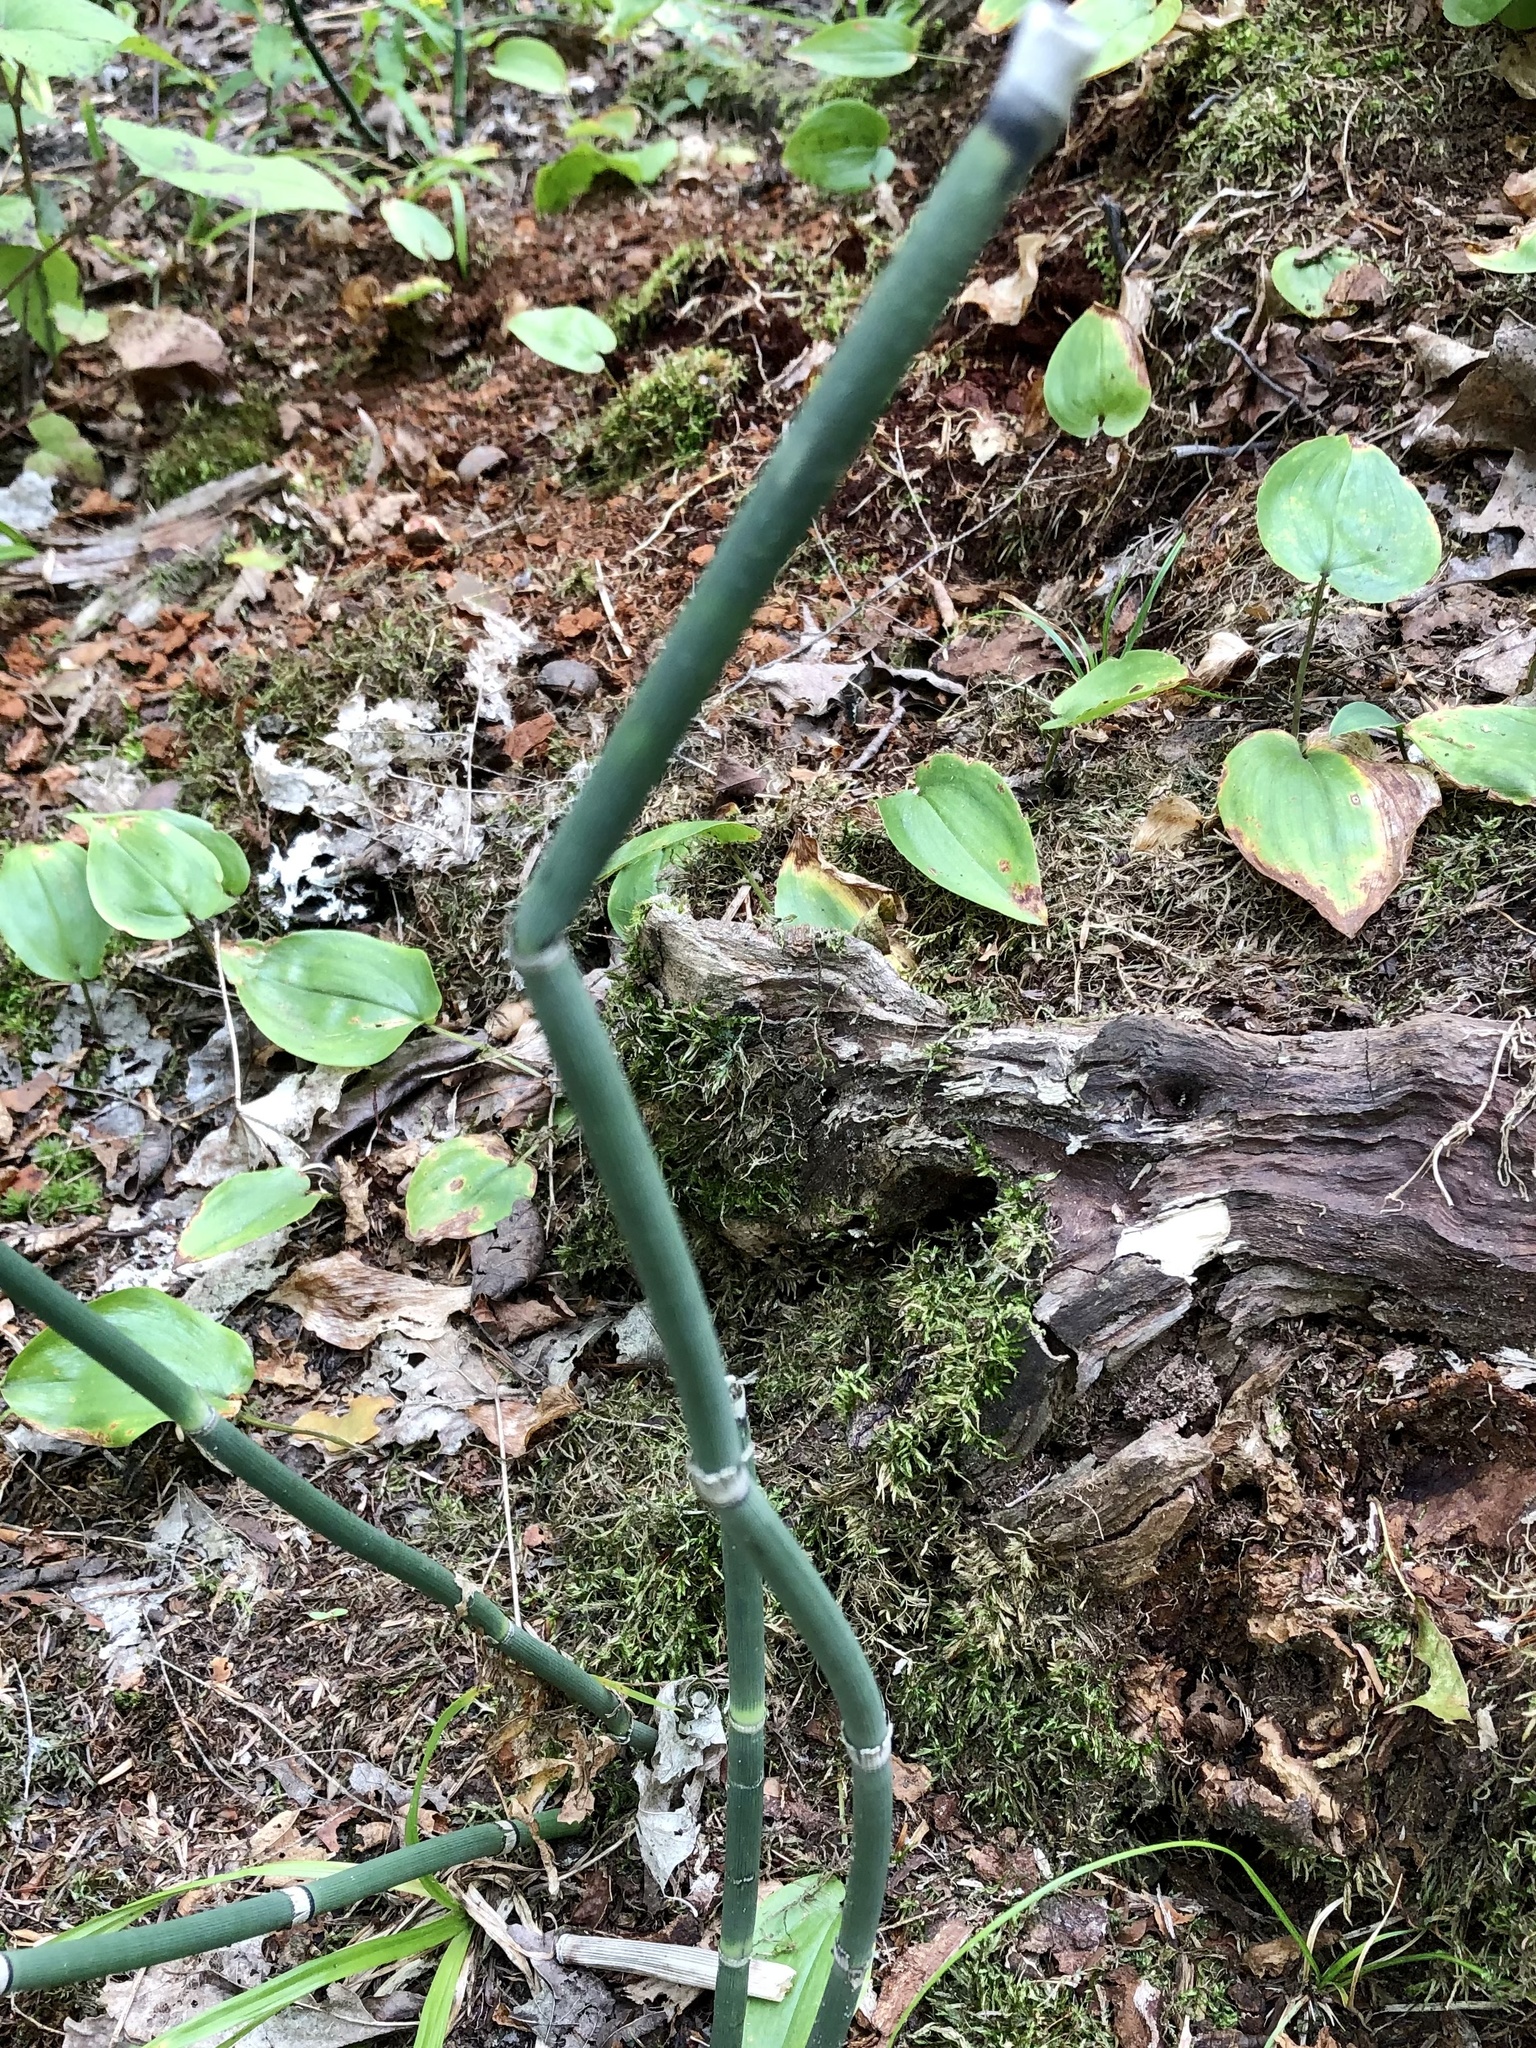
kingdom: Plantae
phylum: Tracheophyta
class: Polypodiopsida
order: Equisetales
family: Equisetaceae
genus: Equisetum
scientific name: Equisetum hyemale
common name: Rough horsetail
